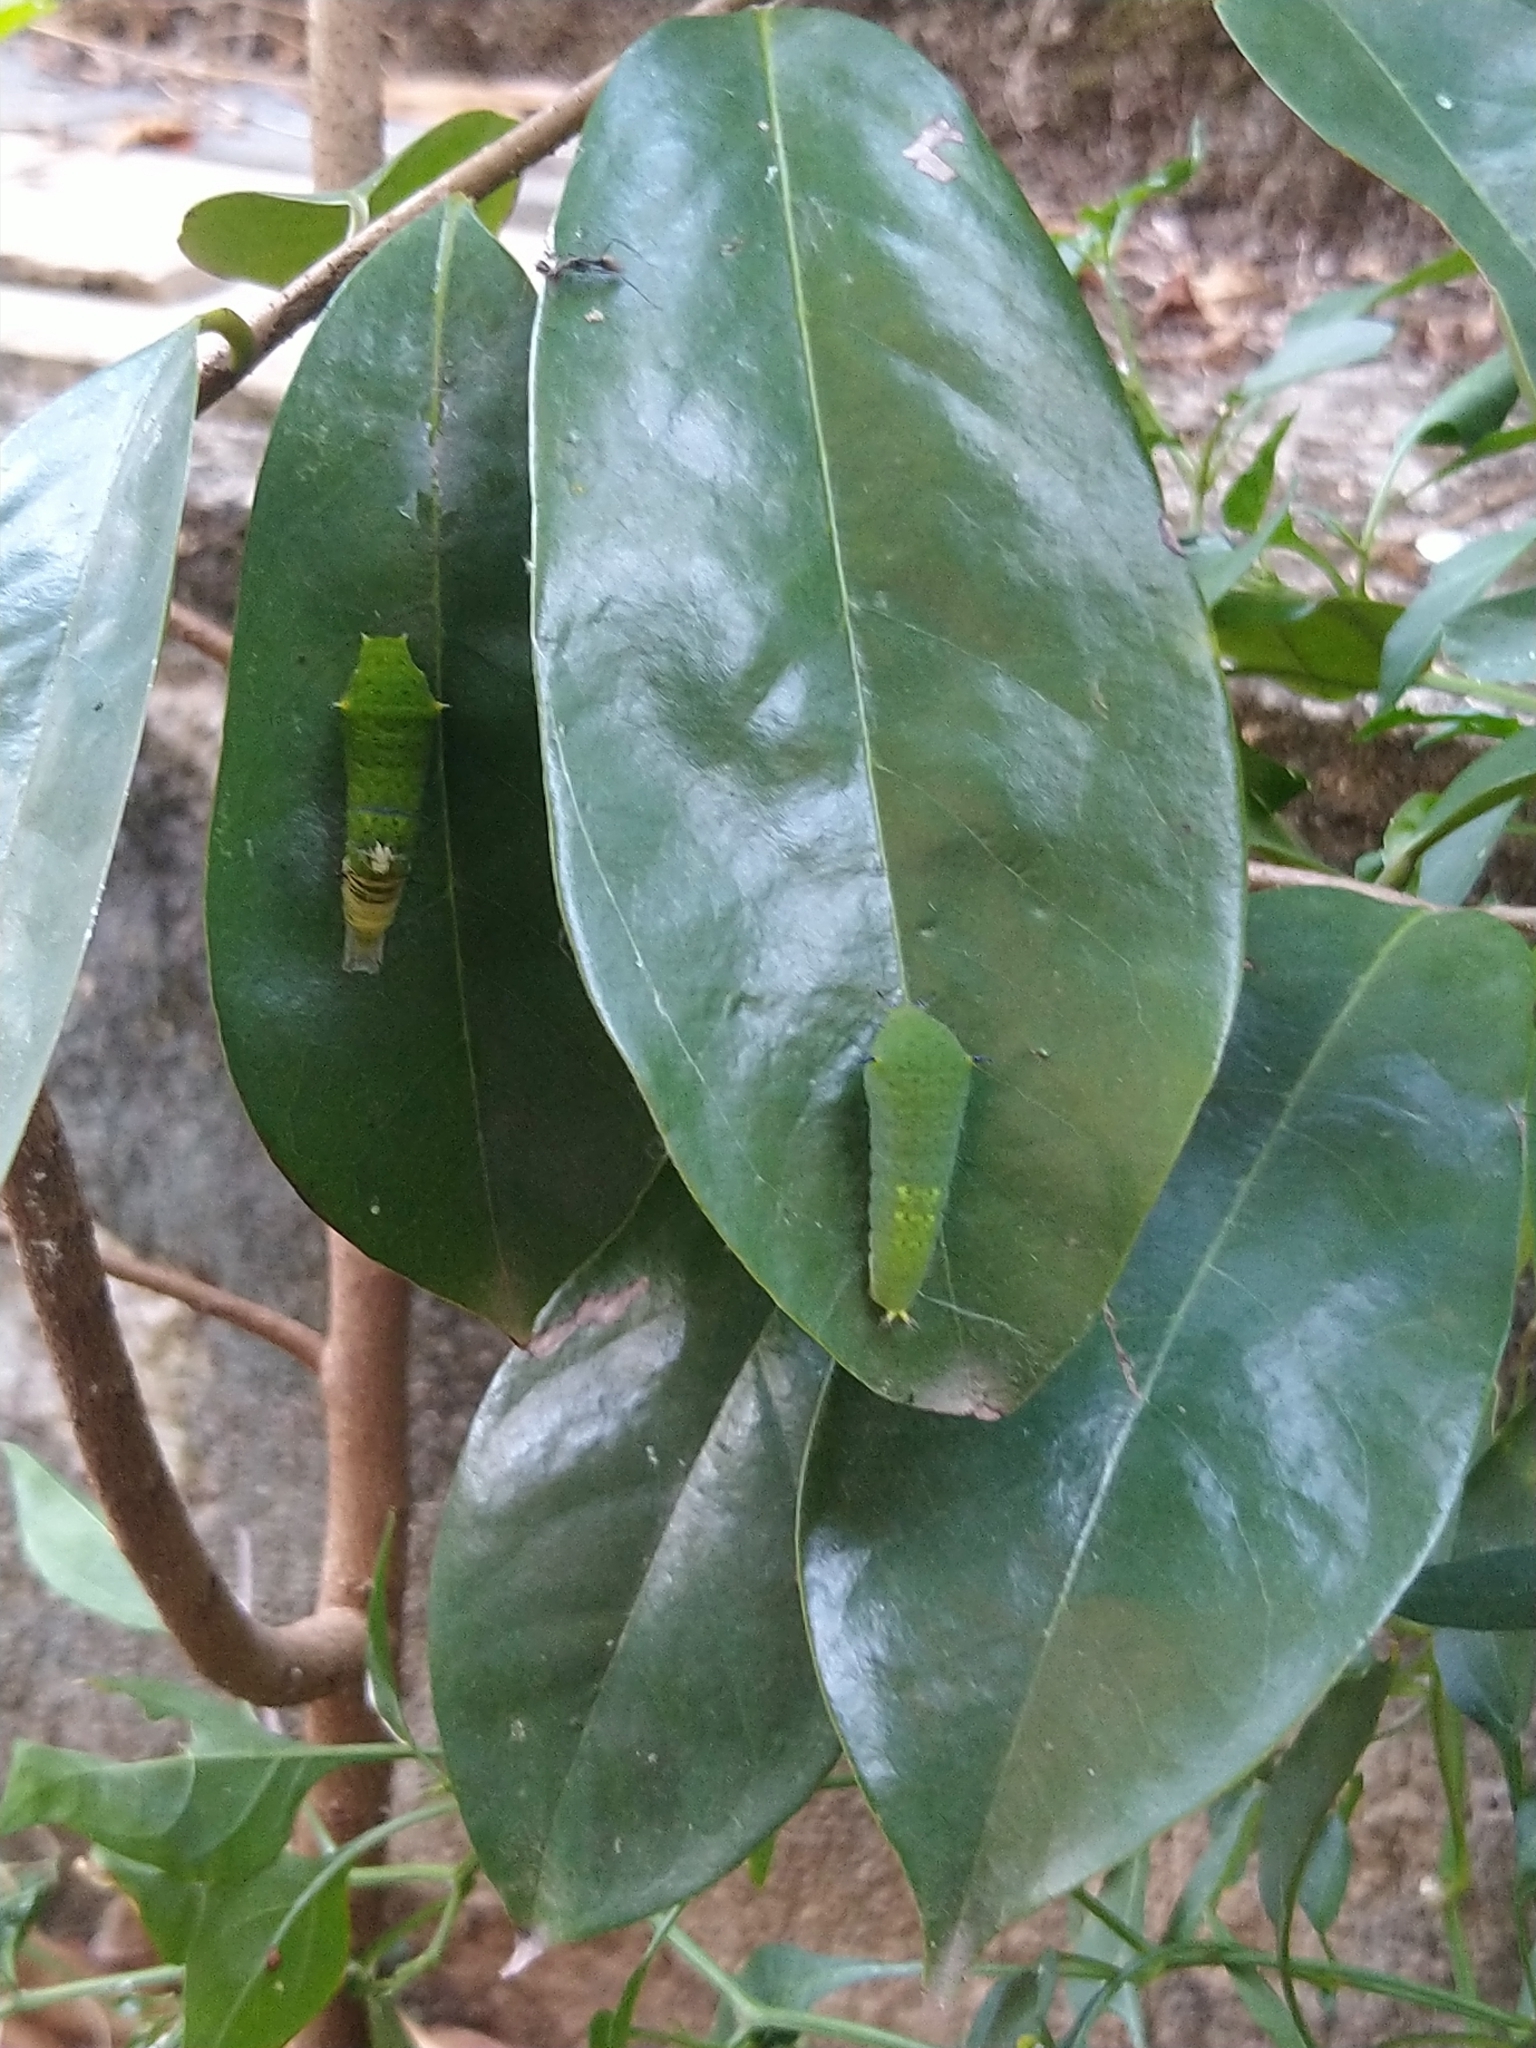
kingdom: Animalia
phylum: Arthropoda
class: Insecta
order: Lepidoptera
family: Papilionidae
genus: Graphium
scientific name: Graphium agamemnon
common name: Tailed jay
